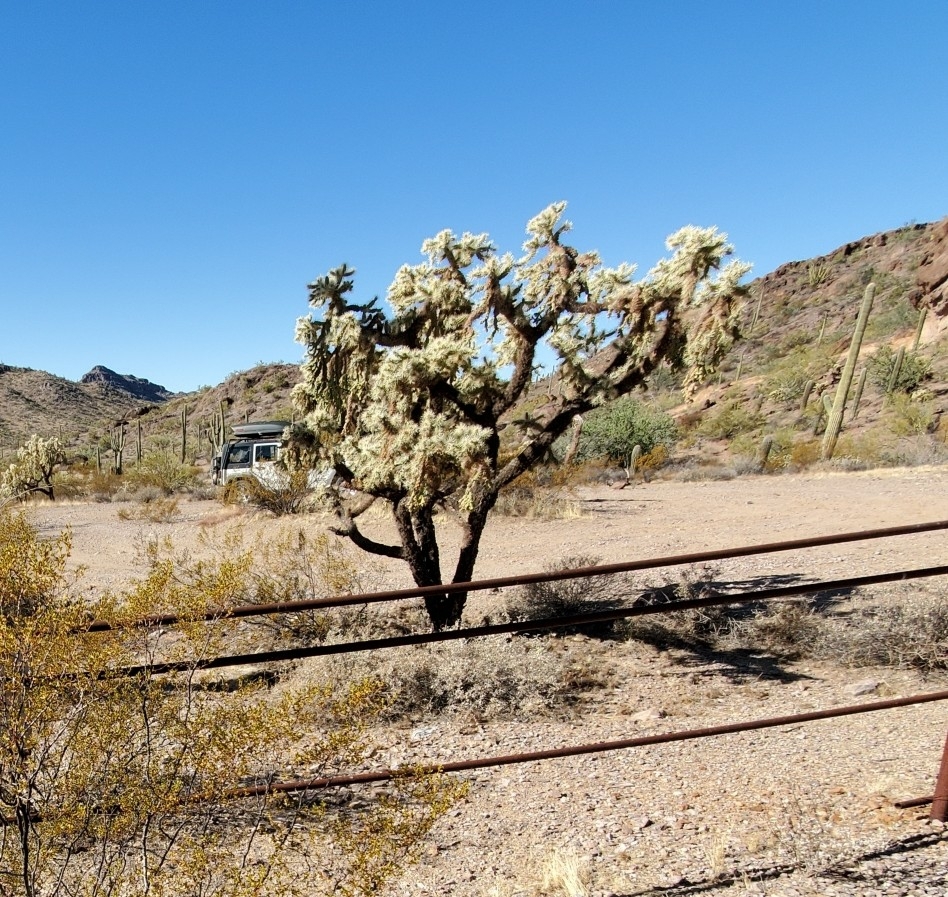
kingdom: Plantae
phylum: Tracheophyta
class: Magnoliopsida
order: Caryophyllales
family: Cactaceae
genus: Cylindropuntia
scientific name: Cylindropuntia fulgida
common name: Jumping cholla
